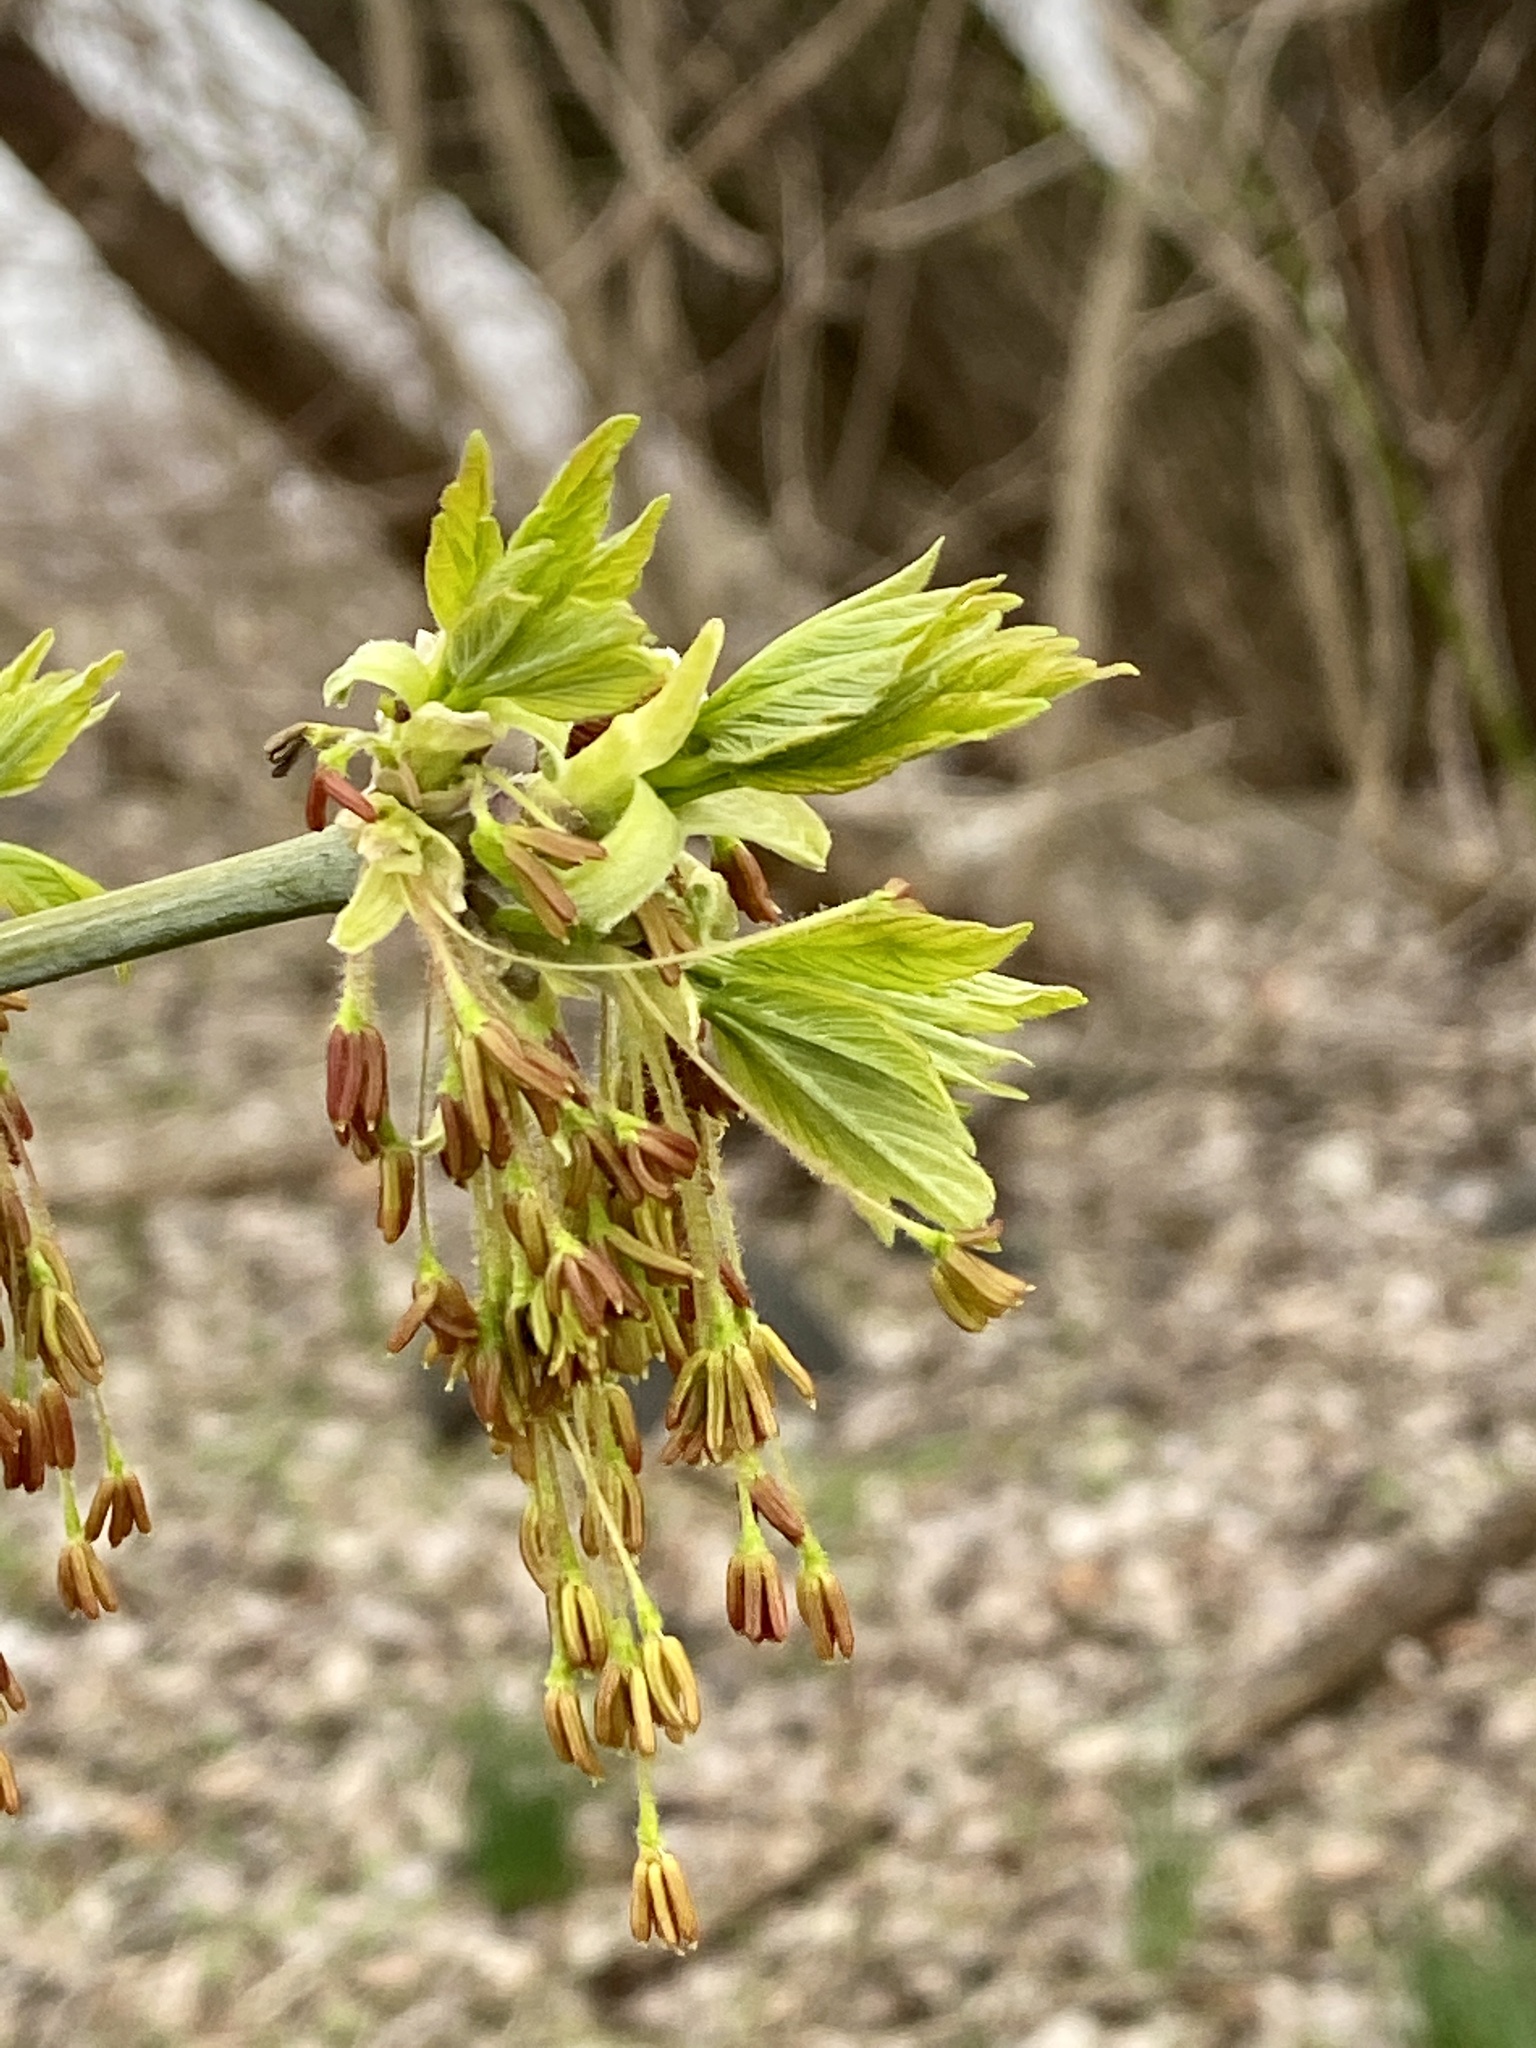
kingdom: Plantae
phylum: Tracheophyta
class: Magnoliopsida
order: Sapindales
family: Sapindaceae
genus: Acer
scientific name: Acer negundo
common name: Ashleaf maple
